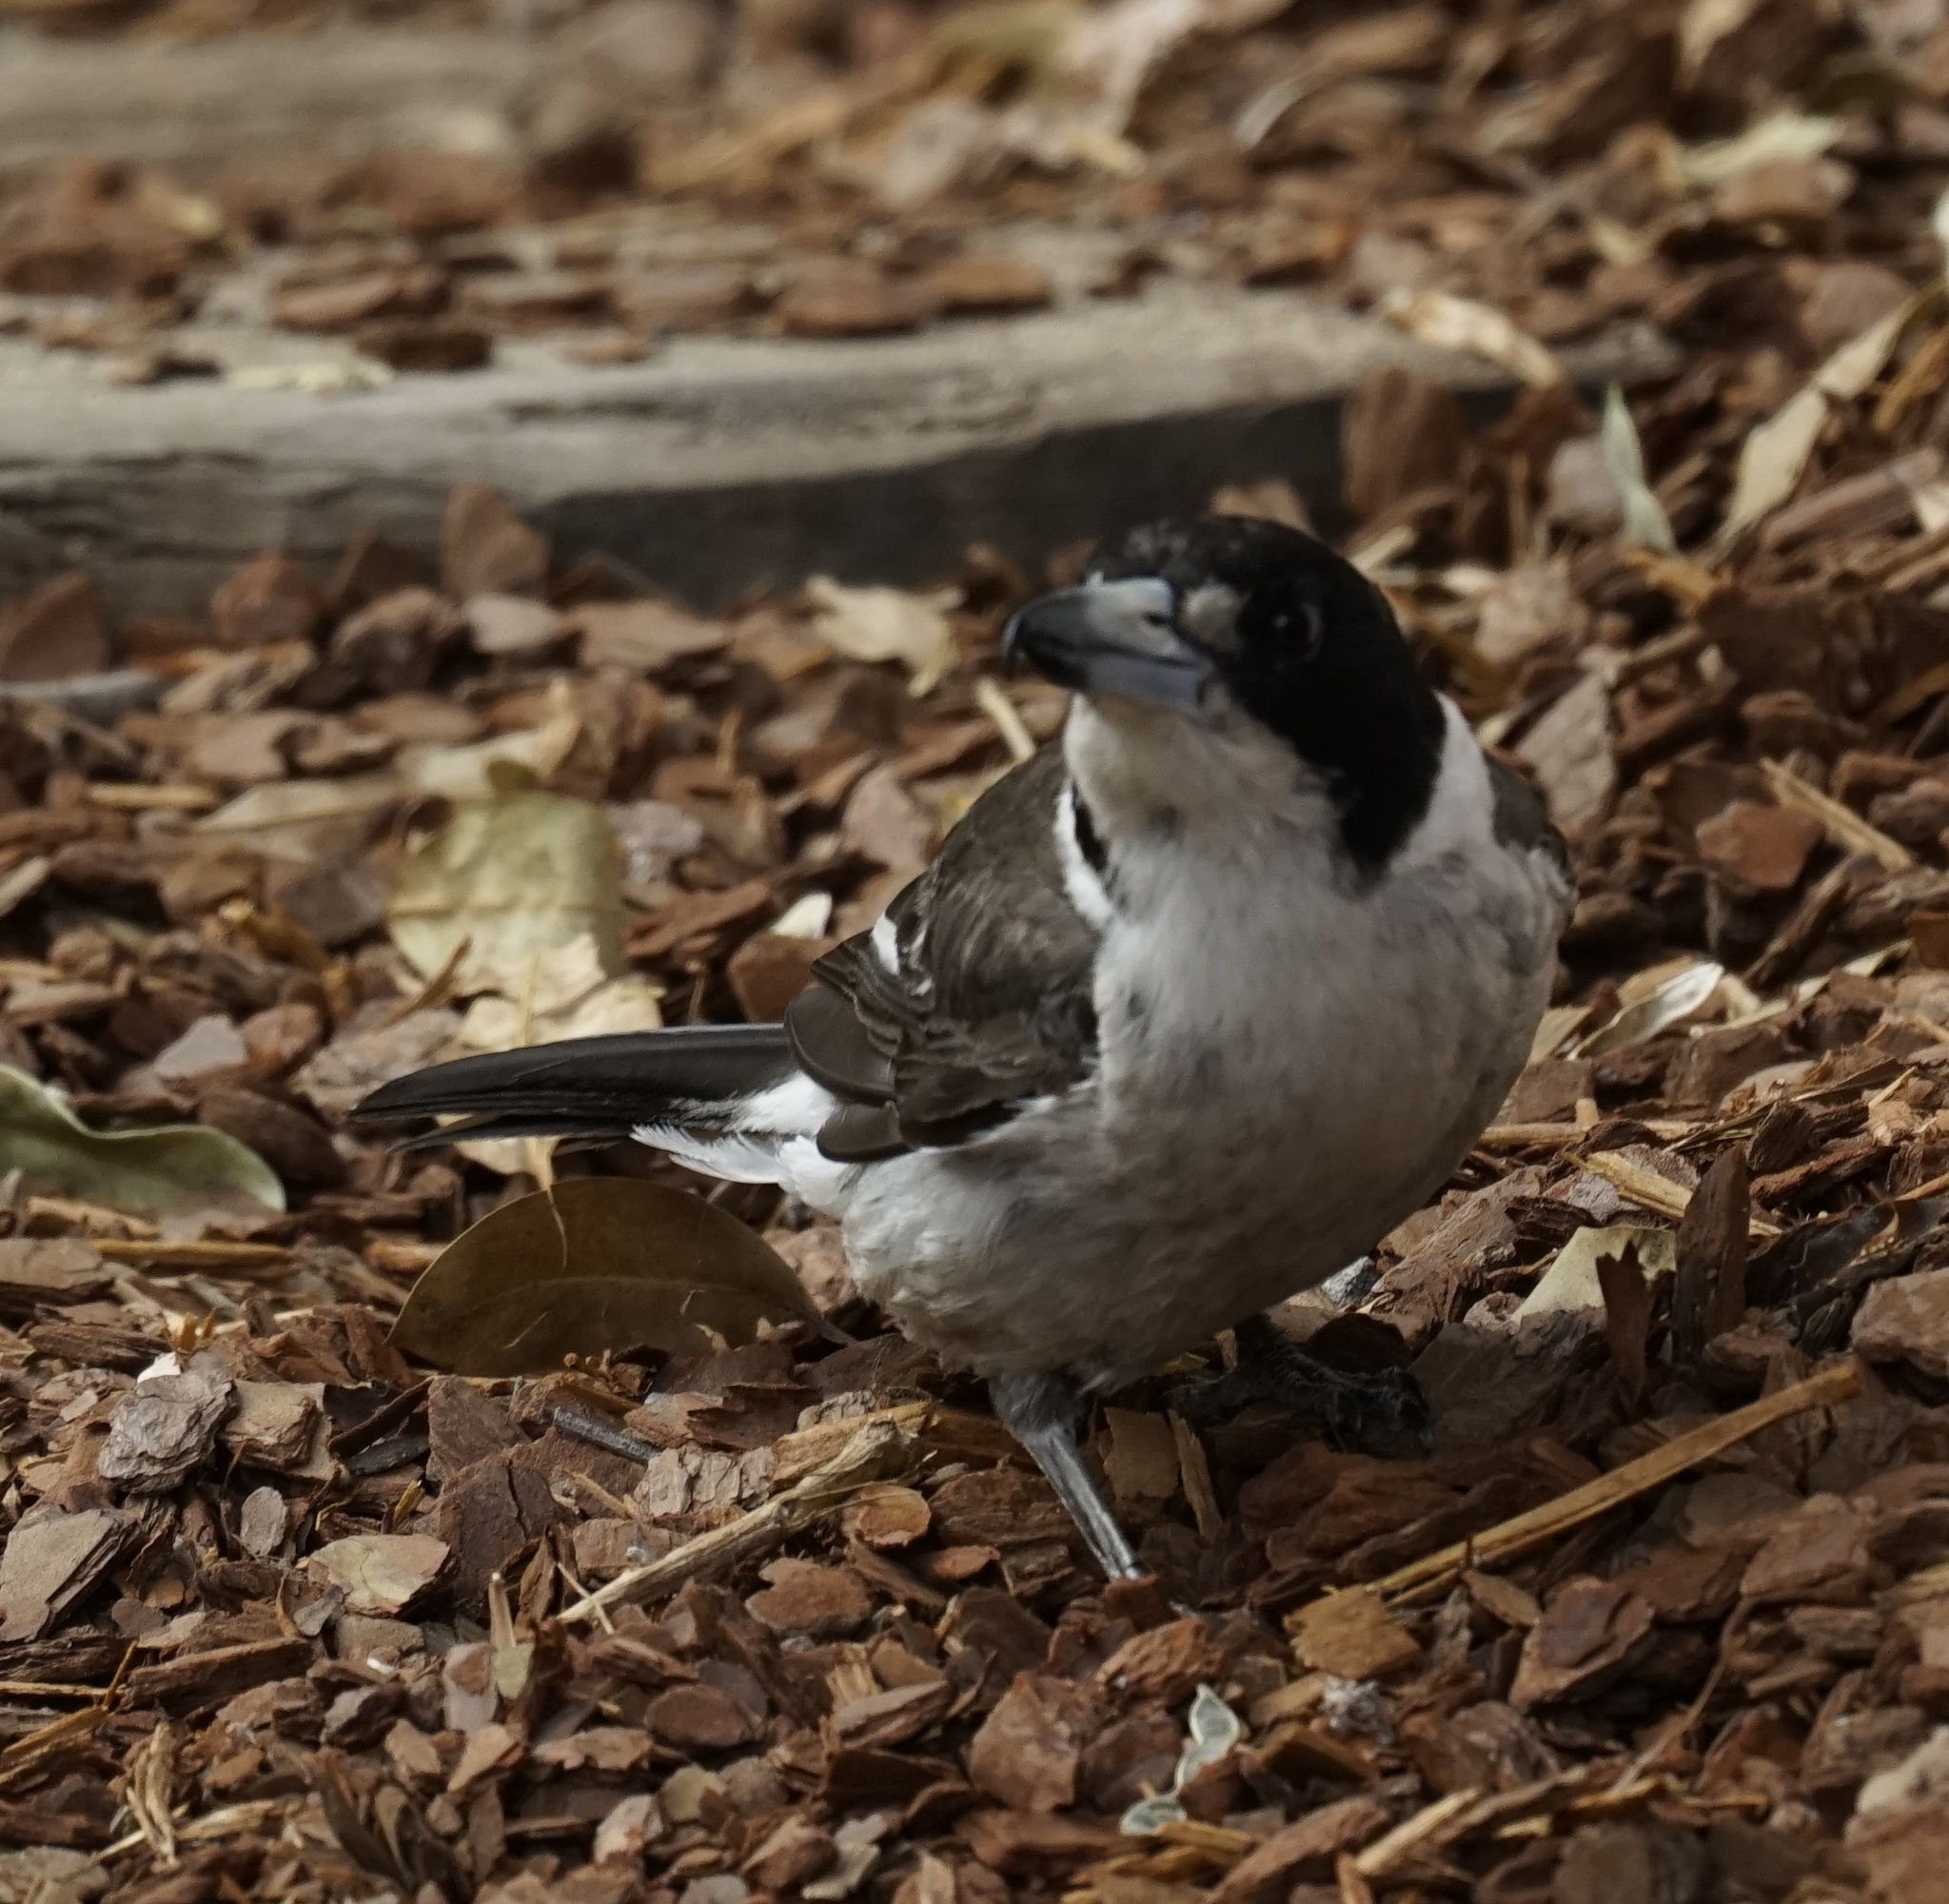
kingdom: Animalia
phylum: Chordata
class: Aves
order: Passeriformes
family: Cracticidae
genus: Cracticus
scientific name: Cracticus torquatus
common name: Grey butcherbird
